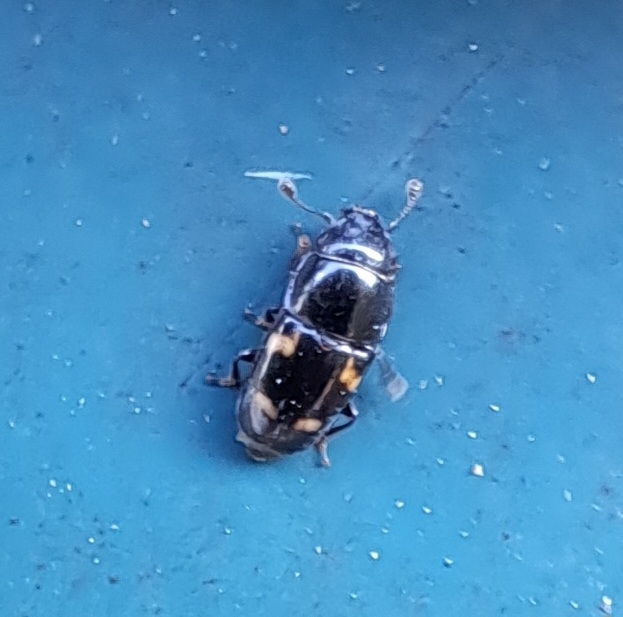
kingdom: Animalia
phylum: Arthropoda
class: Insecta
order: Coleoptera
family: Nitidulidae
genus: Glischrochilus
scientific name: Glischrochilus quadrisignatus
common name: Picnic beetle
